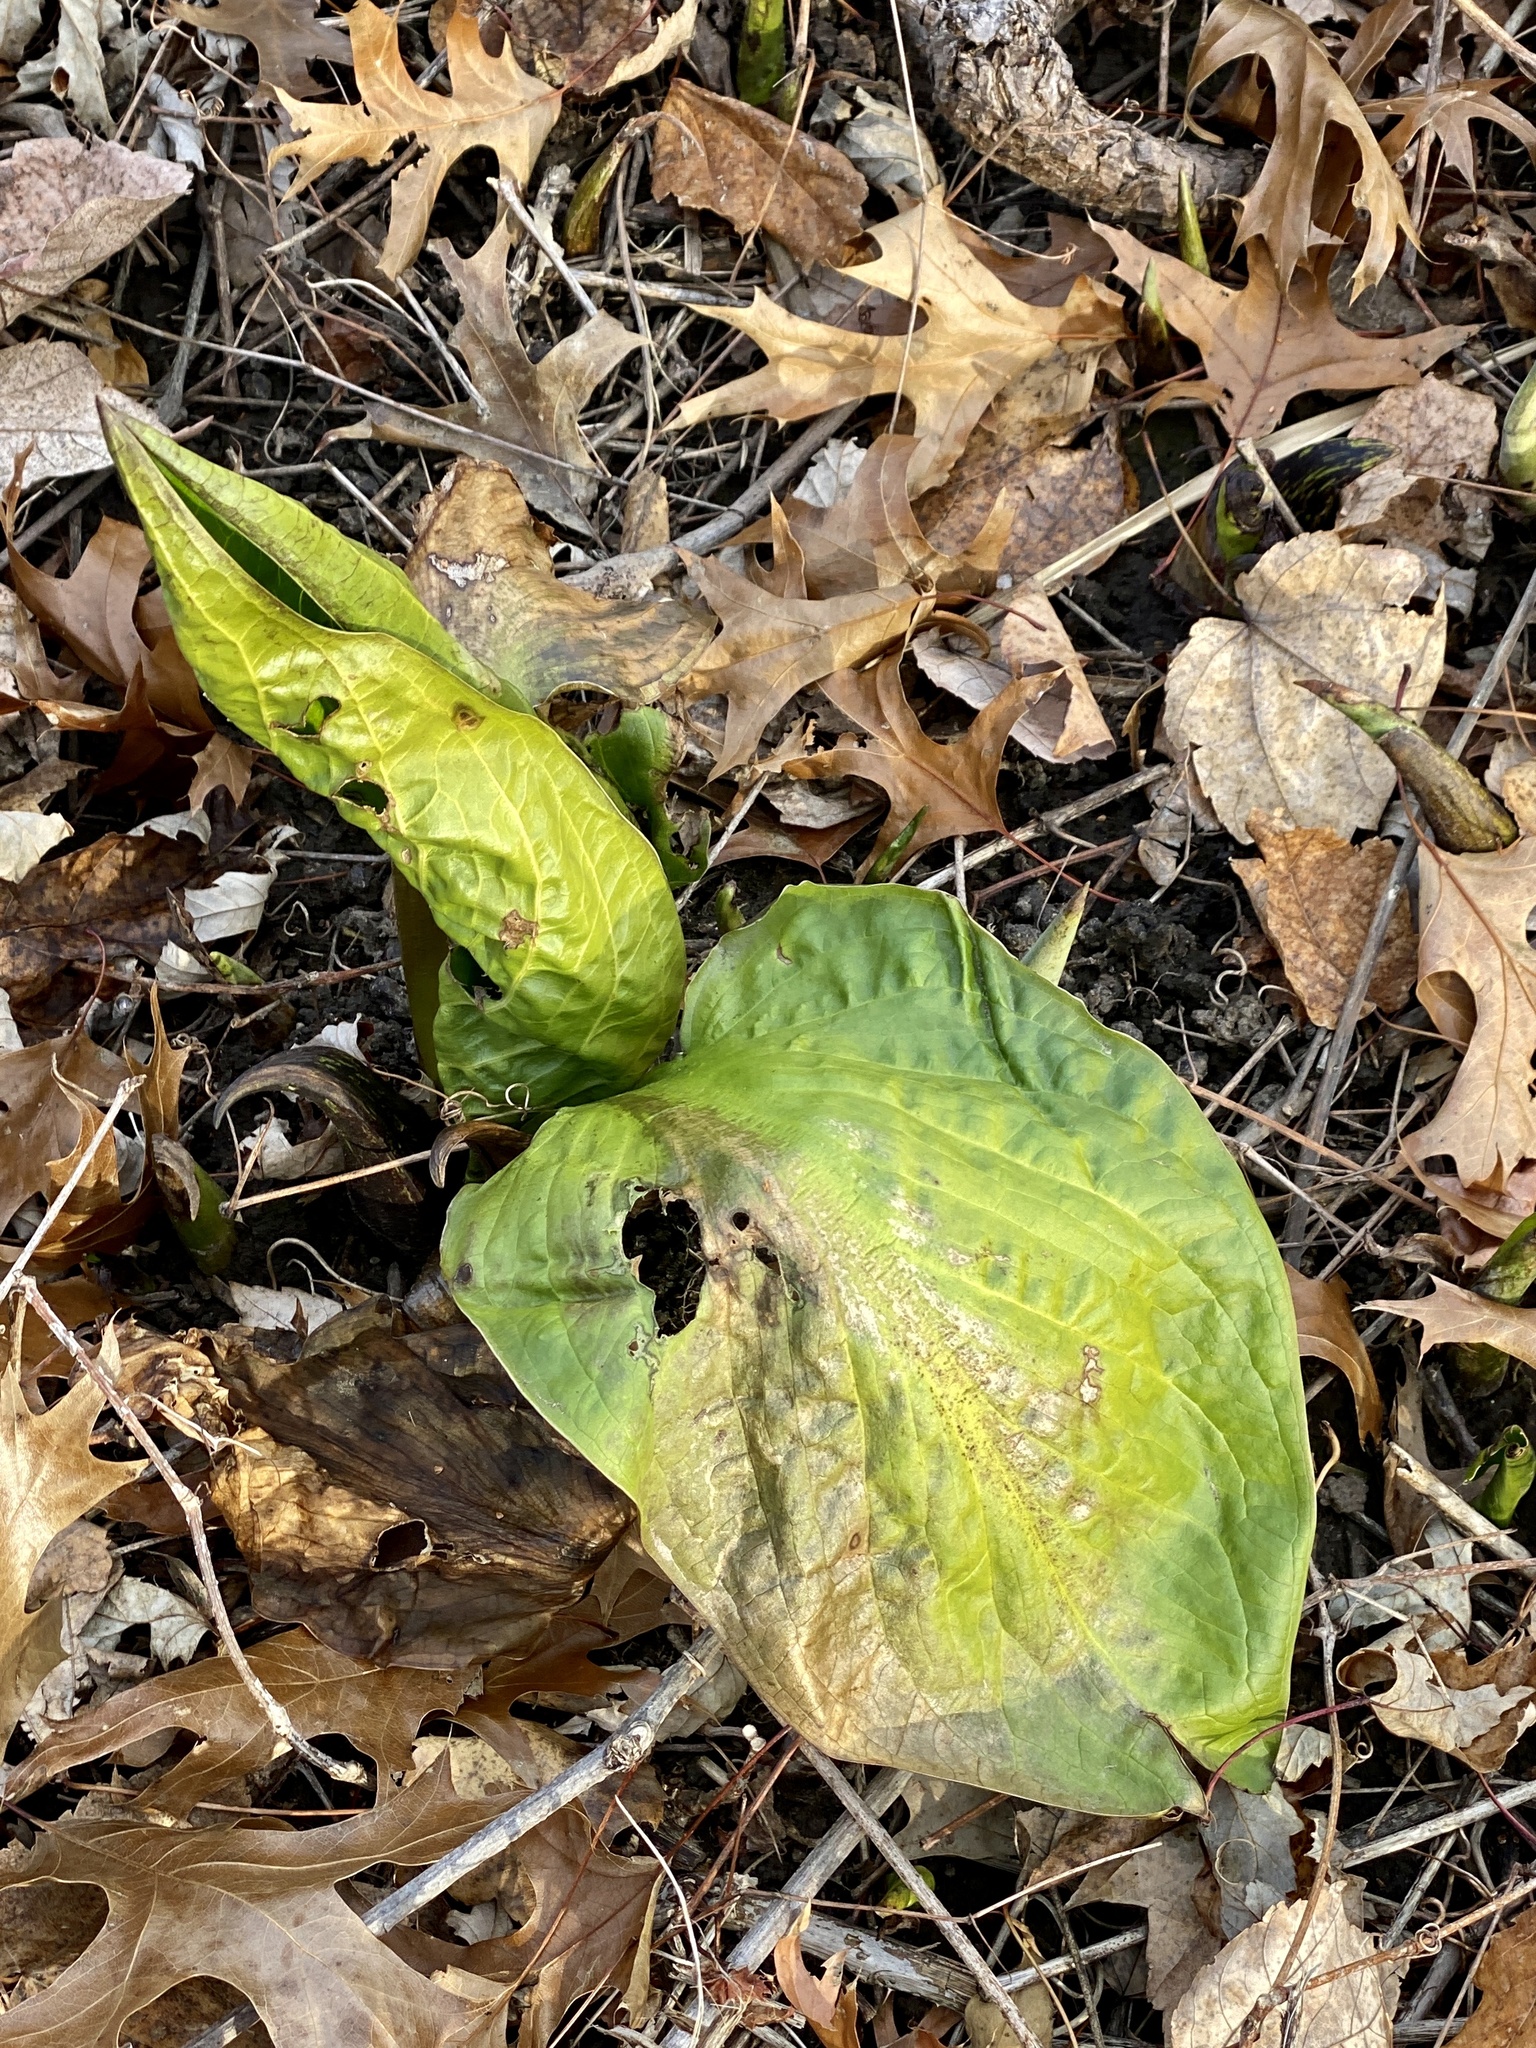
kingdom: Plantae
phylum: Tracheophyta
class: Liliopsida
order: Alismatales
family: Araceae
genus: Symplocarpus
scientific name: Symplocarpus foetidus
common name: Eastern skunk cabbage
